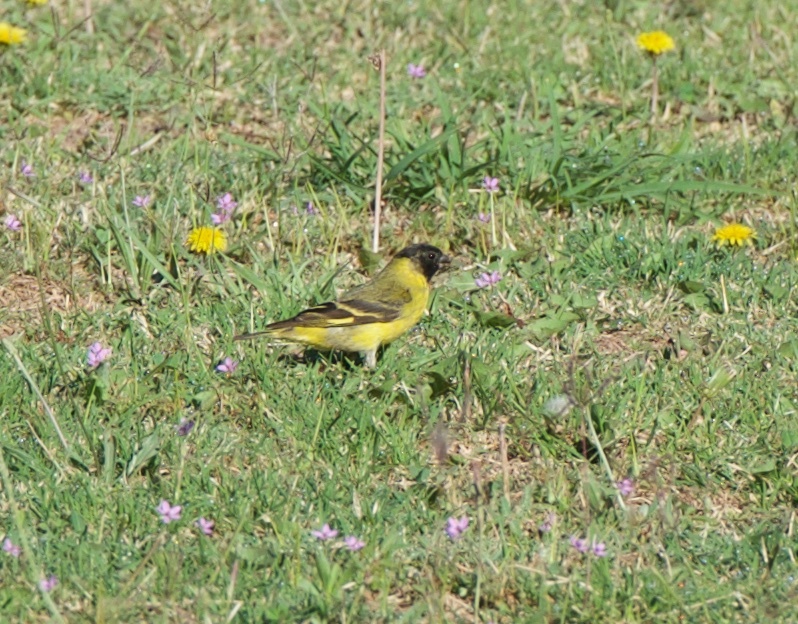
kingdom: Animalia
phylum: Chordata
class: Aves
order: Passeriformes
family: Fringillidae
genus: Spinus
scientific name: Spinus magellanicus
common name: Hooded siskin
